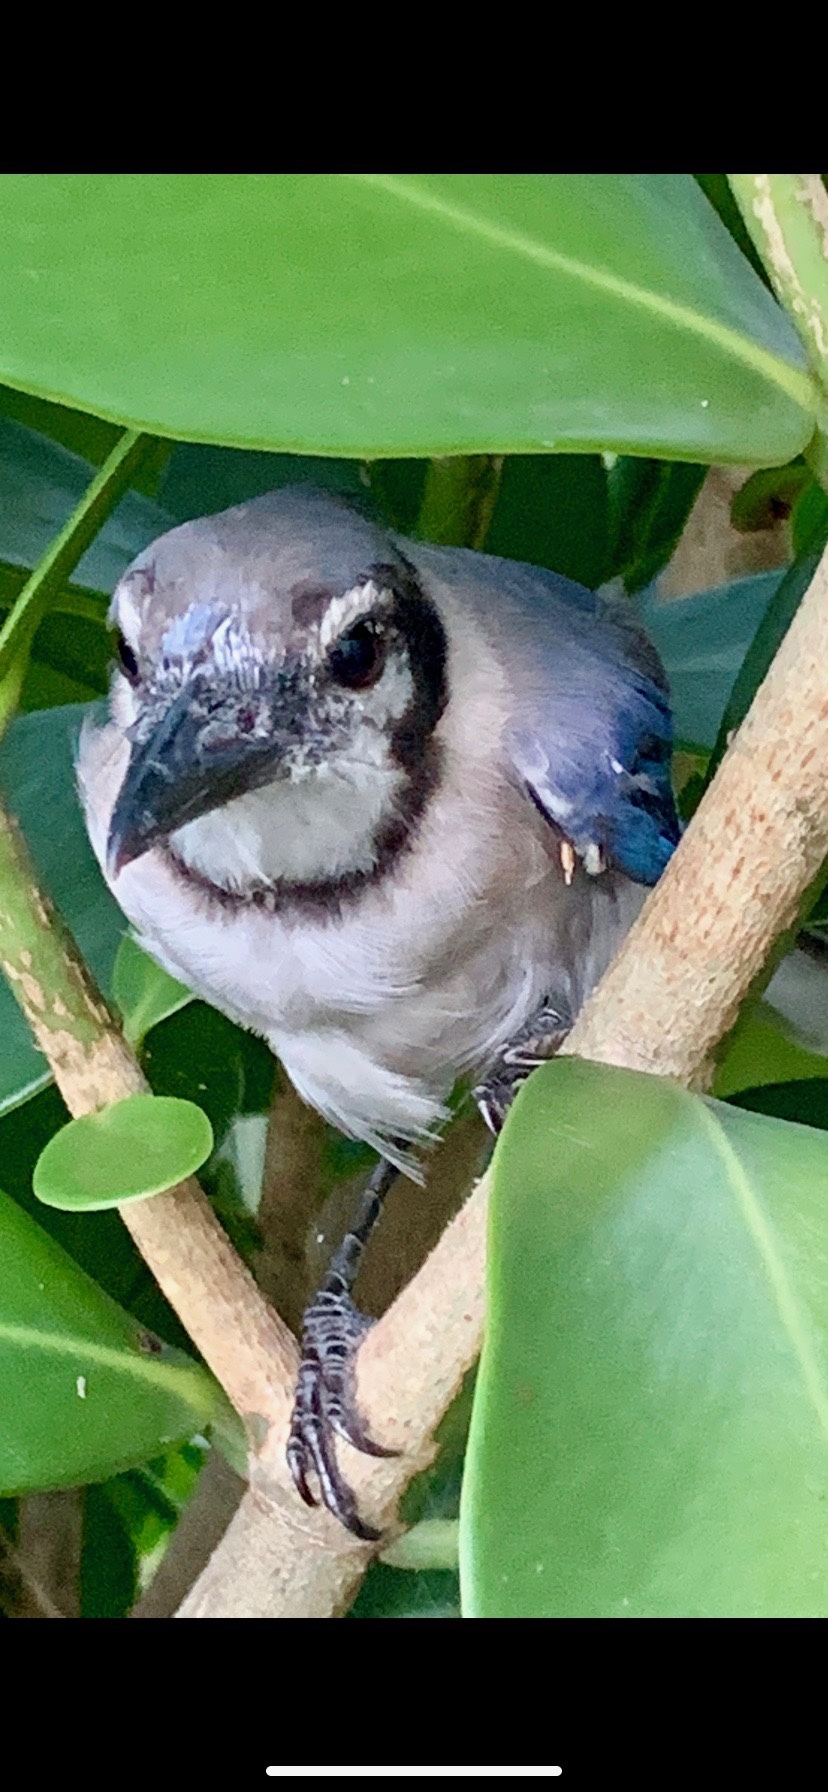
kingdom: Animalia
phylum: Chordata
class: Aves
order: Passeriformes
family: Corvidae
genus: Cyanocitta
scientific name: Cyanocitta cristata
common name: Blue jay
